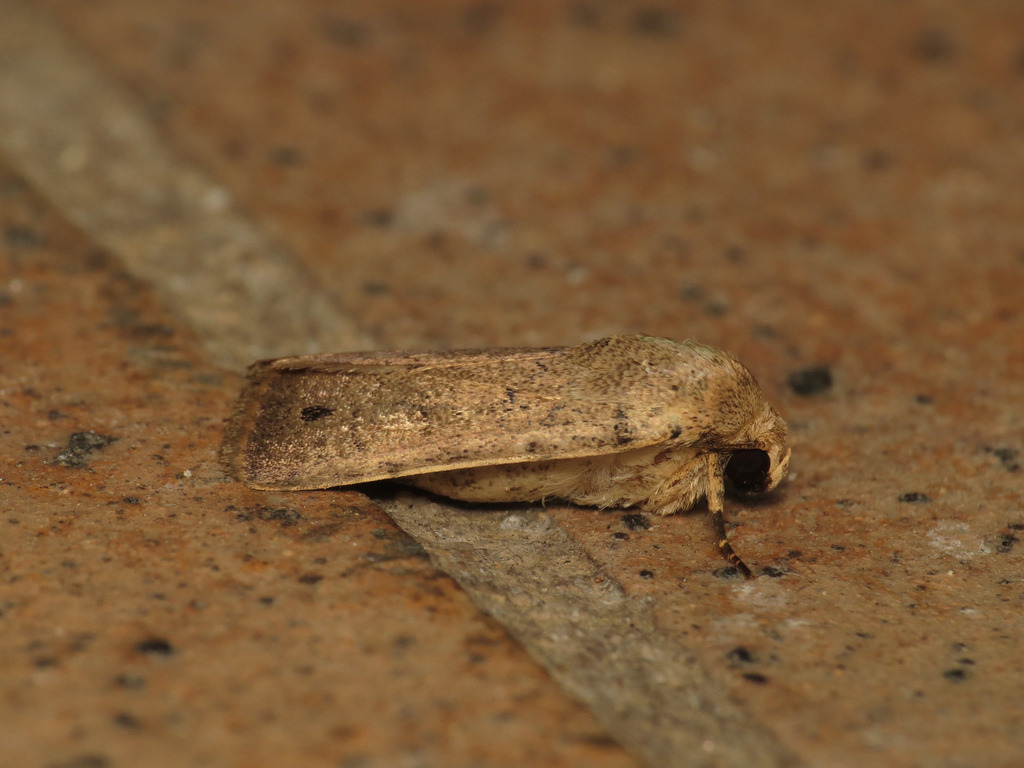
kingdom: Animalia
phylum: Arthropoda
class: Insecta
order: Lepidoptera
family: Noctuidae
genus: Athetis
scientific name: Athetis maculatra
